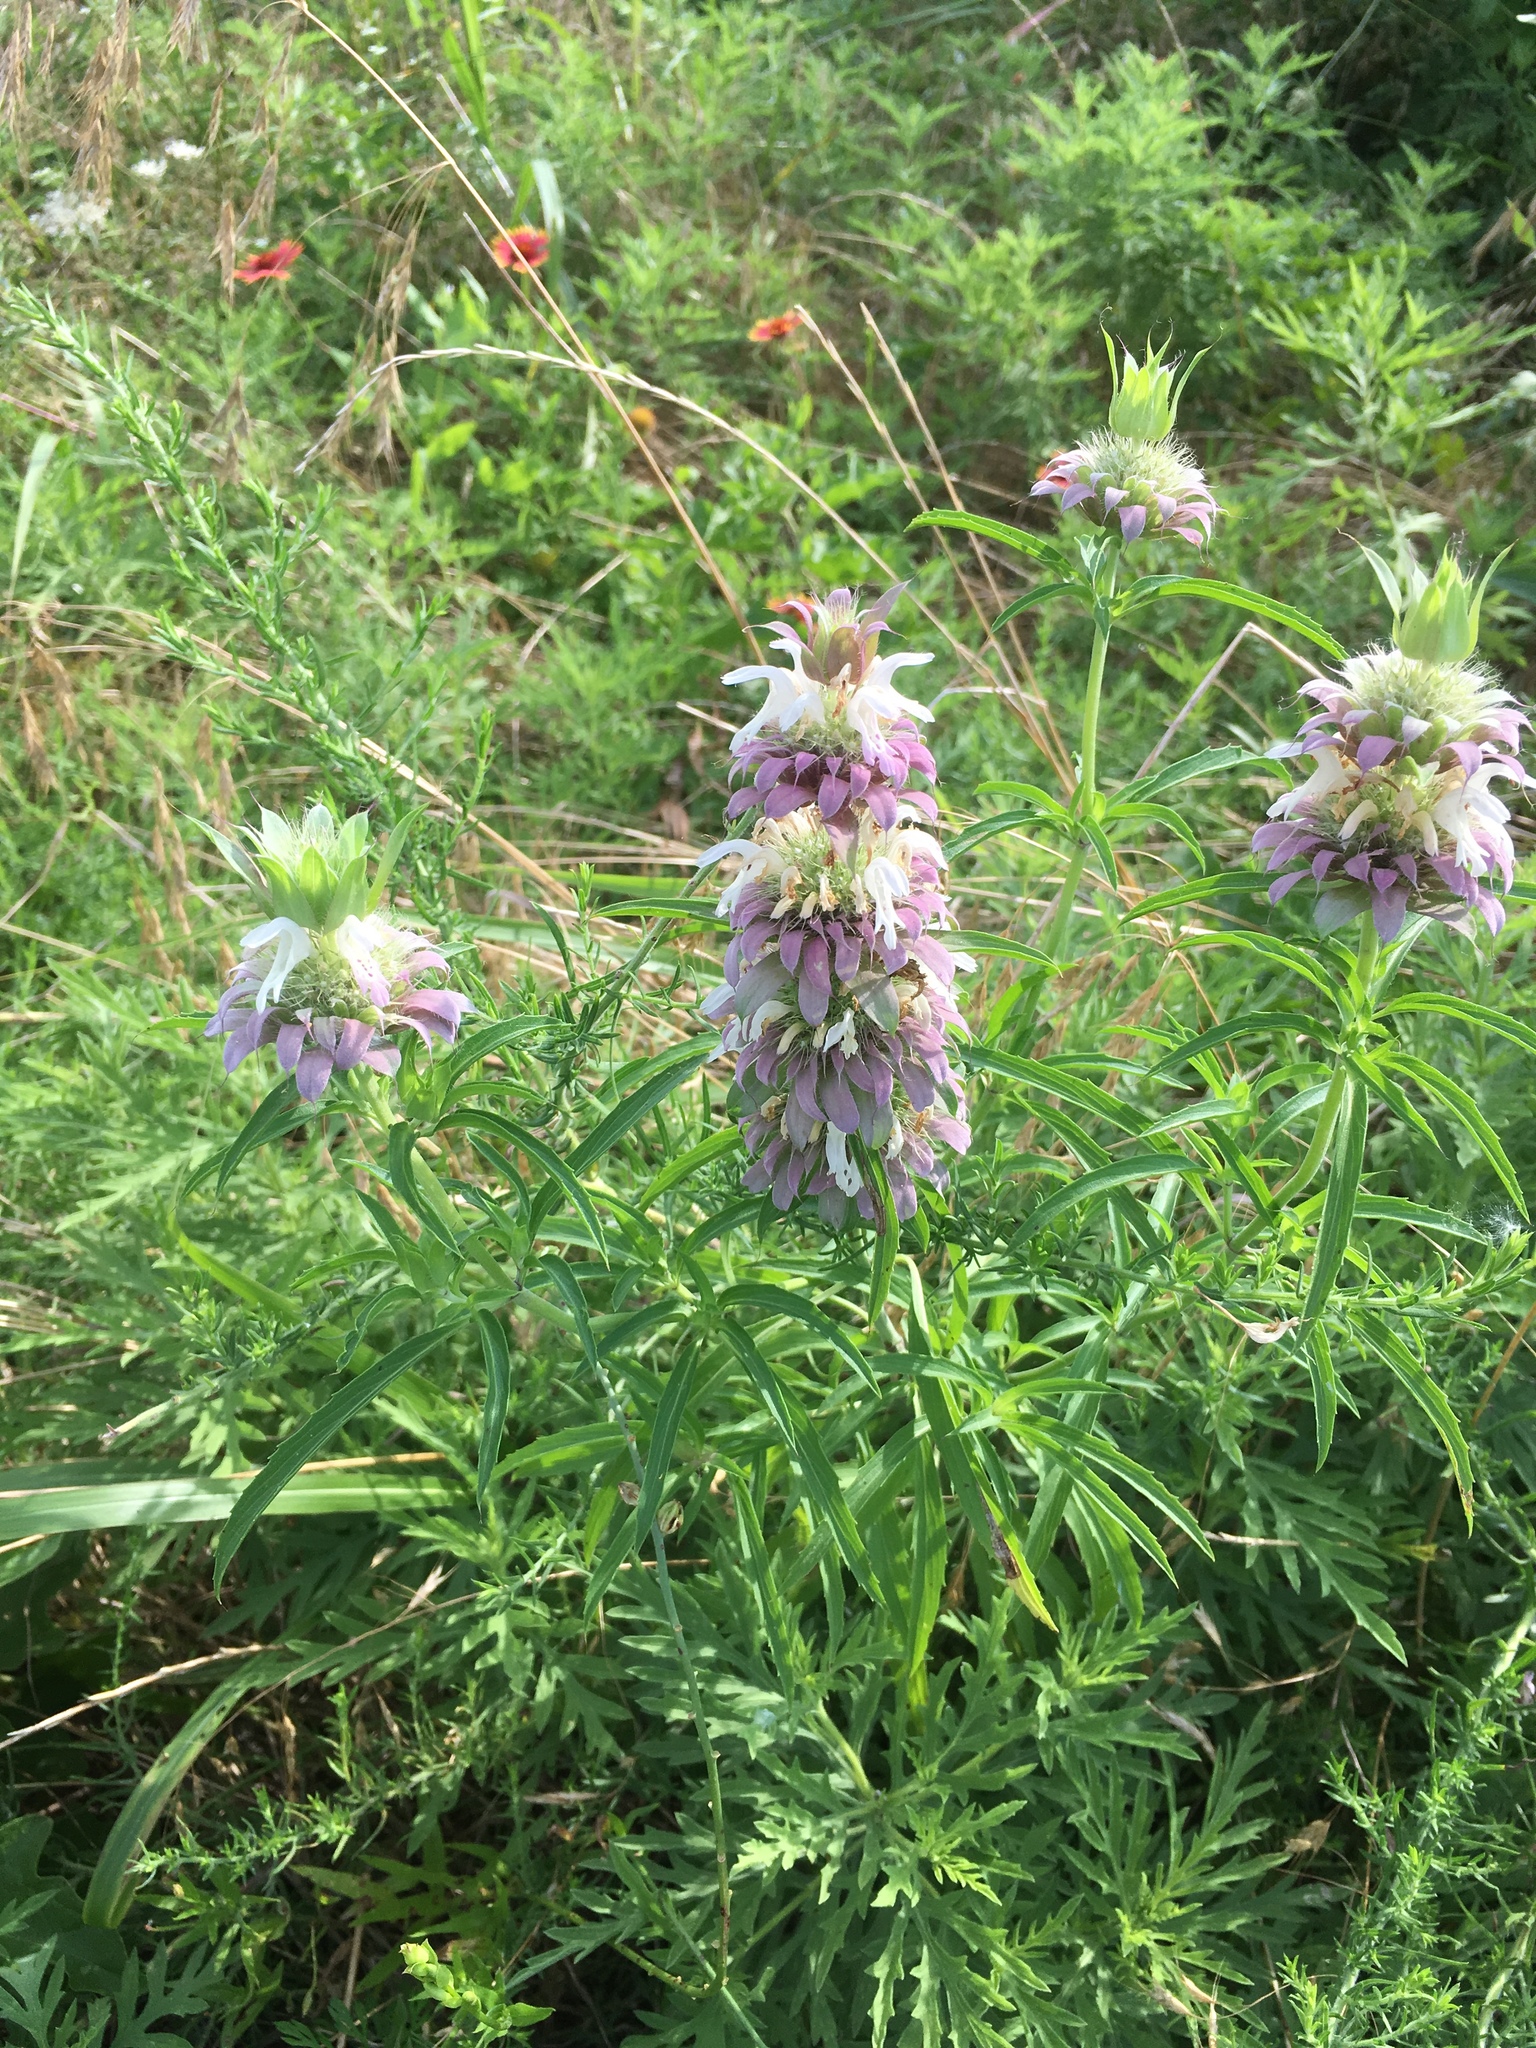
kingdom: Plantae
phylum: Tracheophyta
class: Magnoliopsida
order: Lamiales
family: Lamiaceae
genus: Monarda
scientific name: Monarda citriodora
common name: Lemon beebalm
